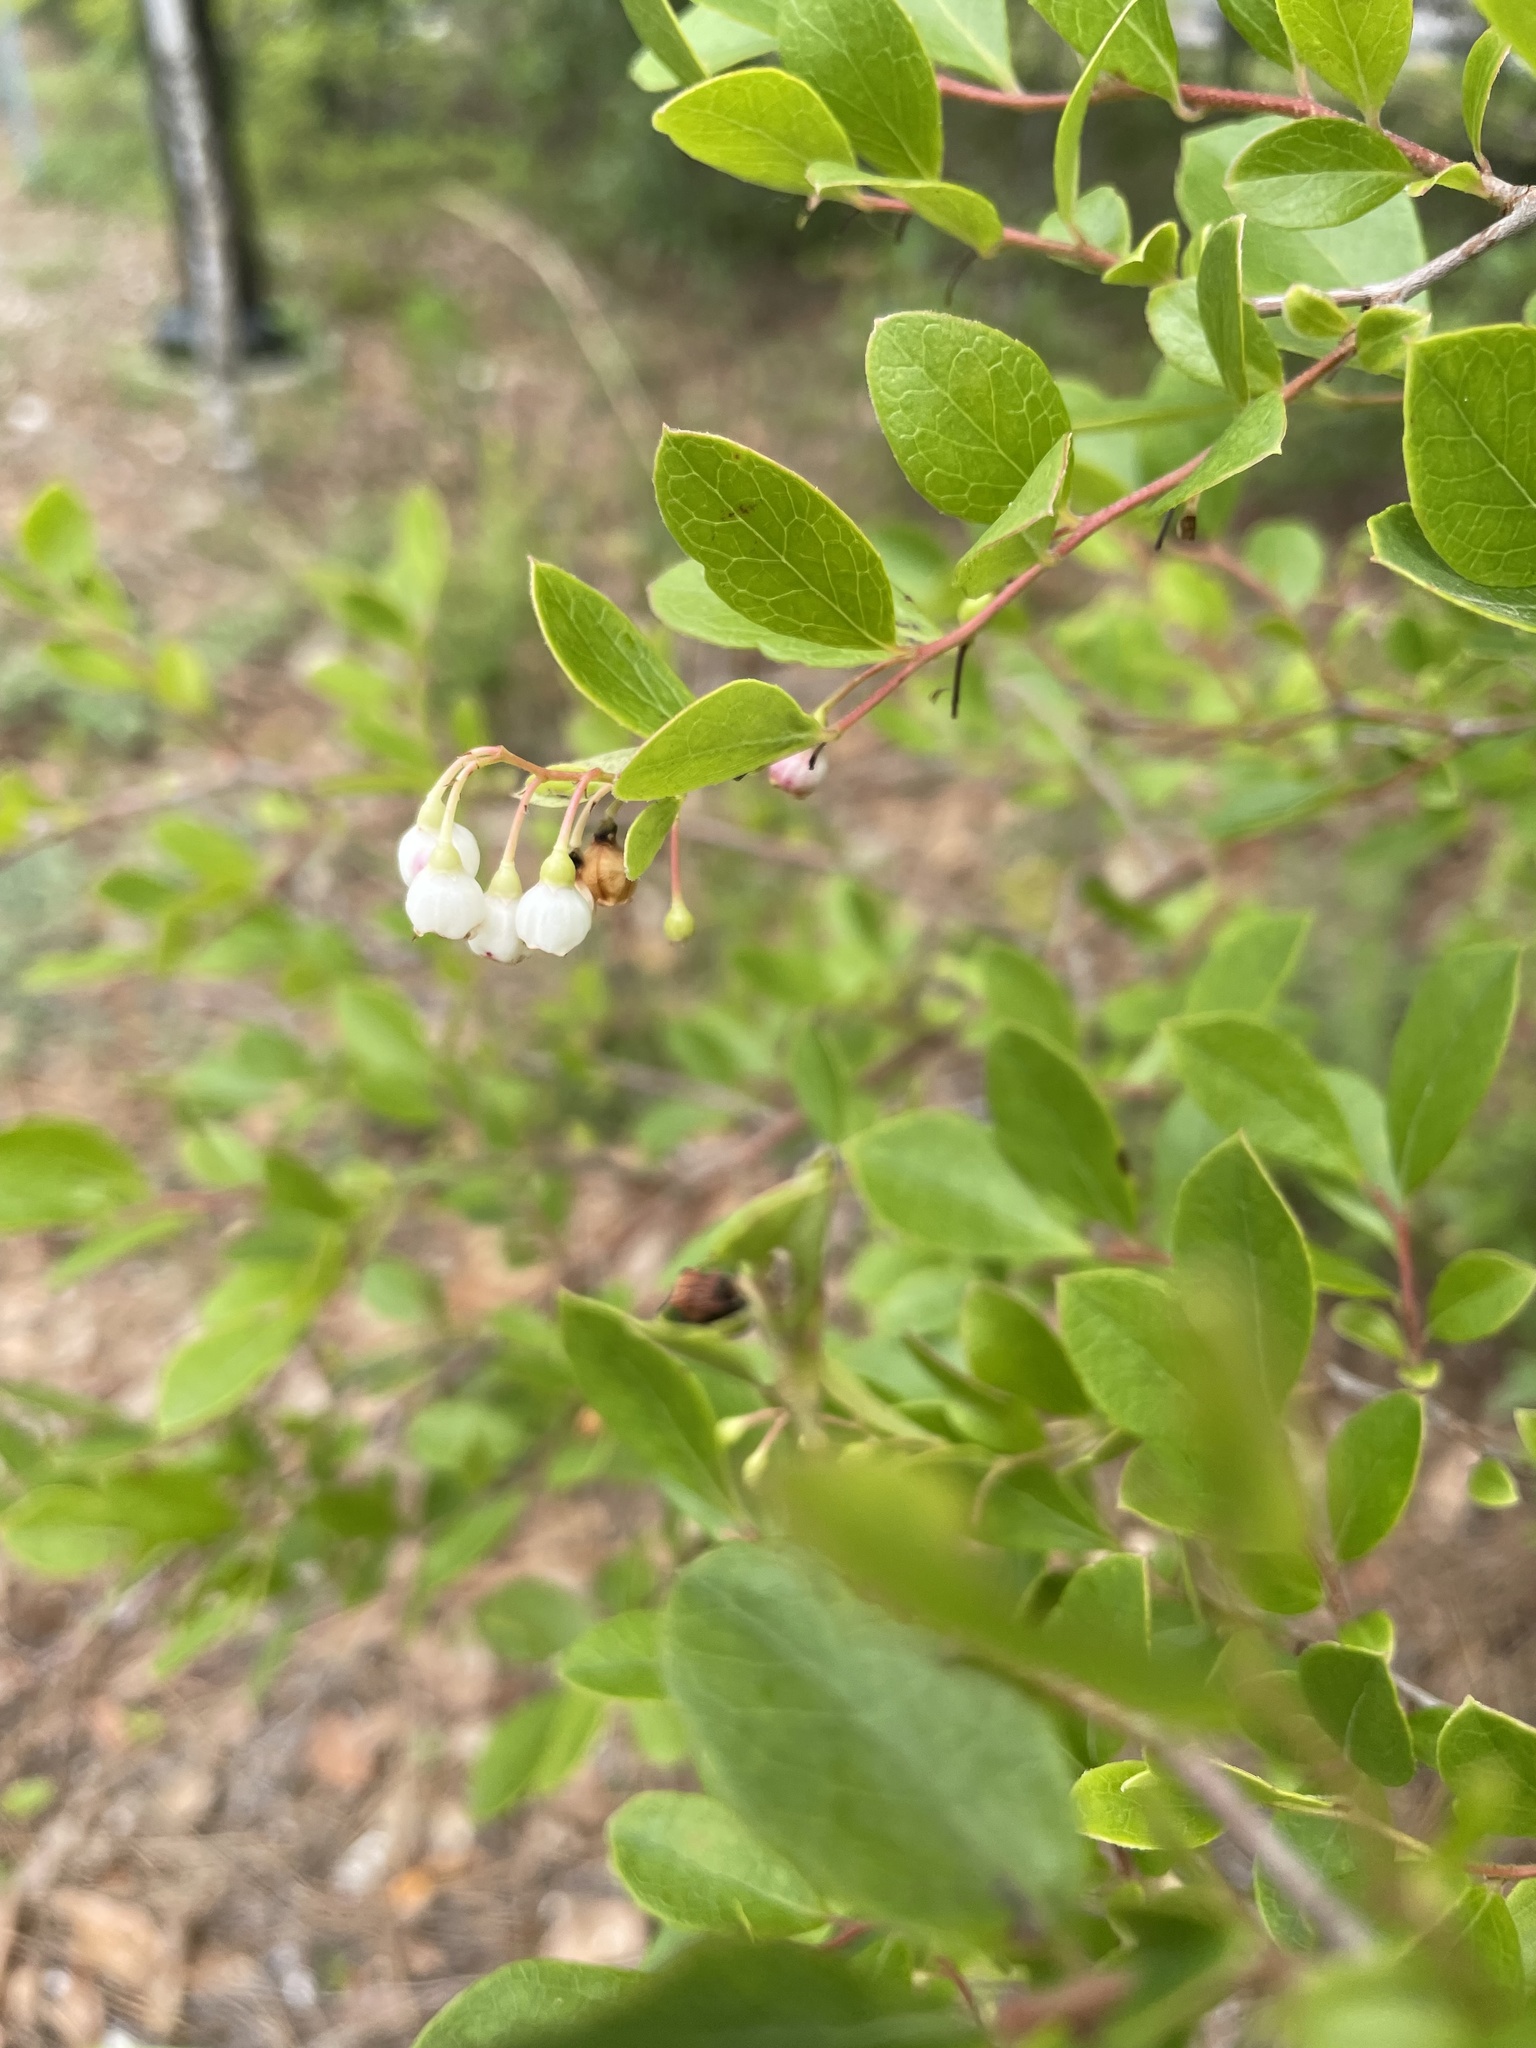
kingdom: Plantae
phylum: Tracheophyta
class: Magnoliopsida
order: Ericales
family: Ericaceae
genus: Vaccinium
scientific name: Vaccinium arboreum
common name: Farkleberry
